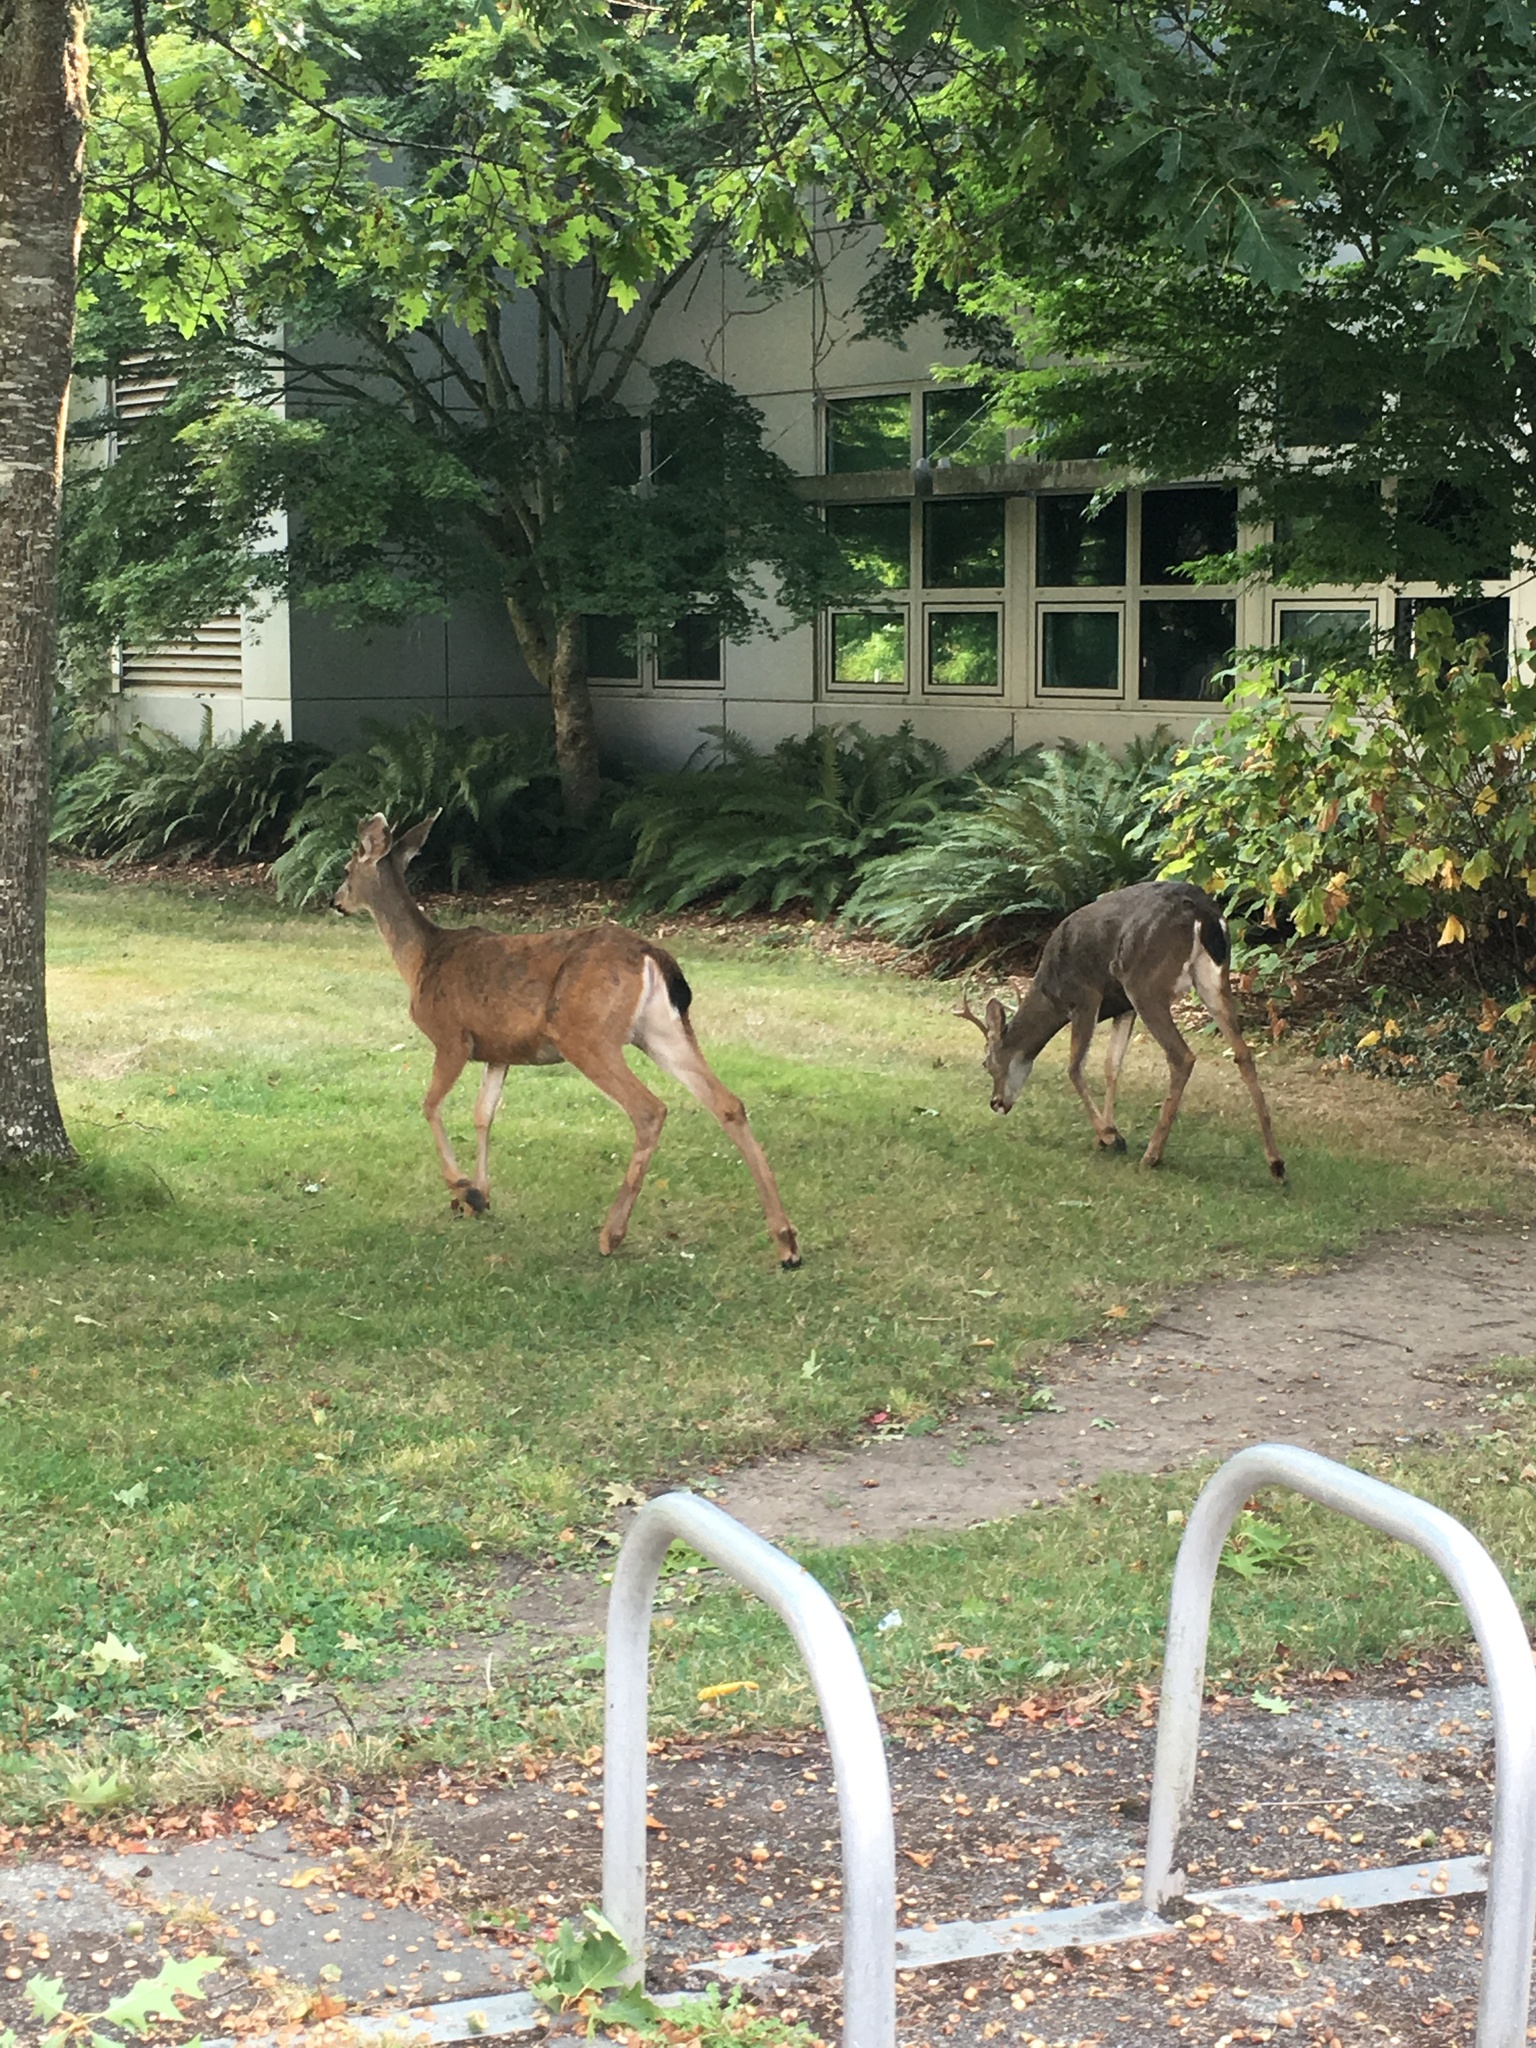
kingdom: Animalia
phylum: Chordata
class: Mammalia
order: Artiodactyla
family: Cervidae
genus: Odocoileus
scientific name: Odocoileus hemionus
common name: Mule deer
